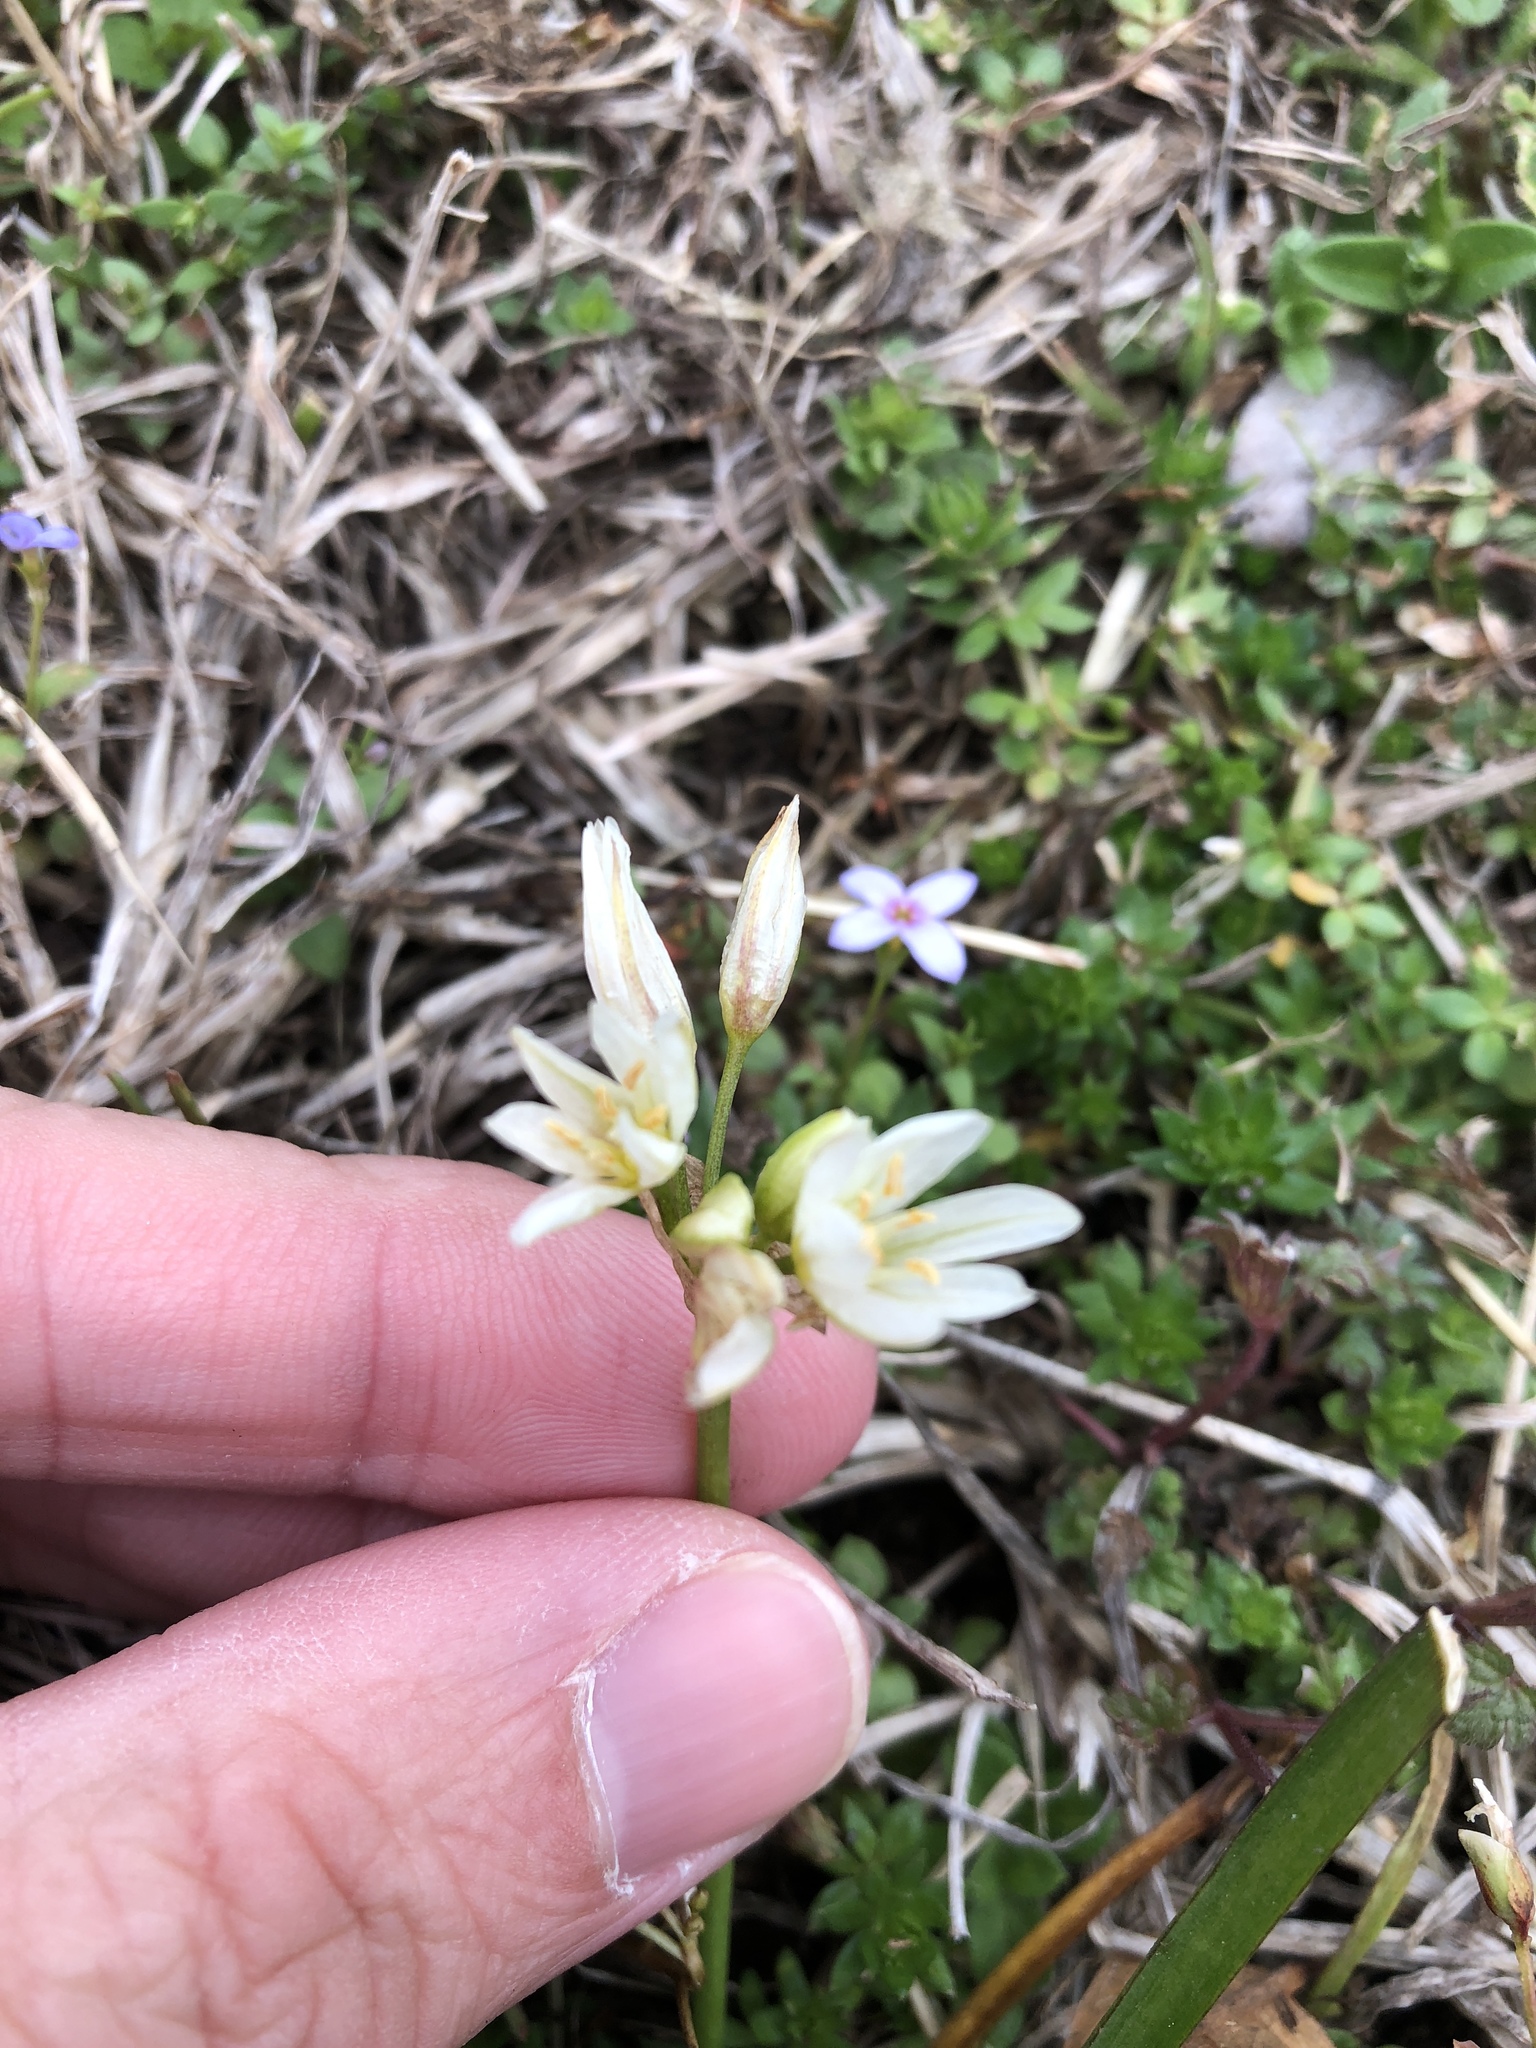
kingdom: Plantae
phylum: Tracheophyta
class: Liliopsida
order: Asparagales
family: Amaryllidaceae
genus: Nothoscordum
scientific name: Nothoscordum bivalve
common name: Crow-poison
